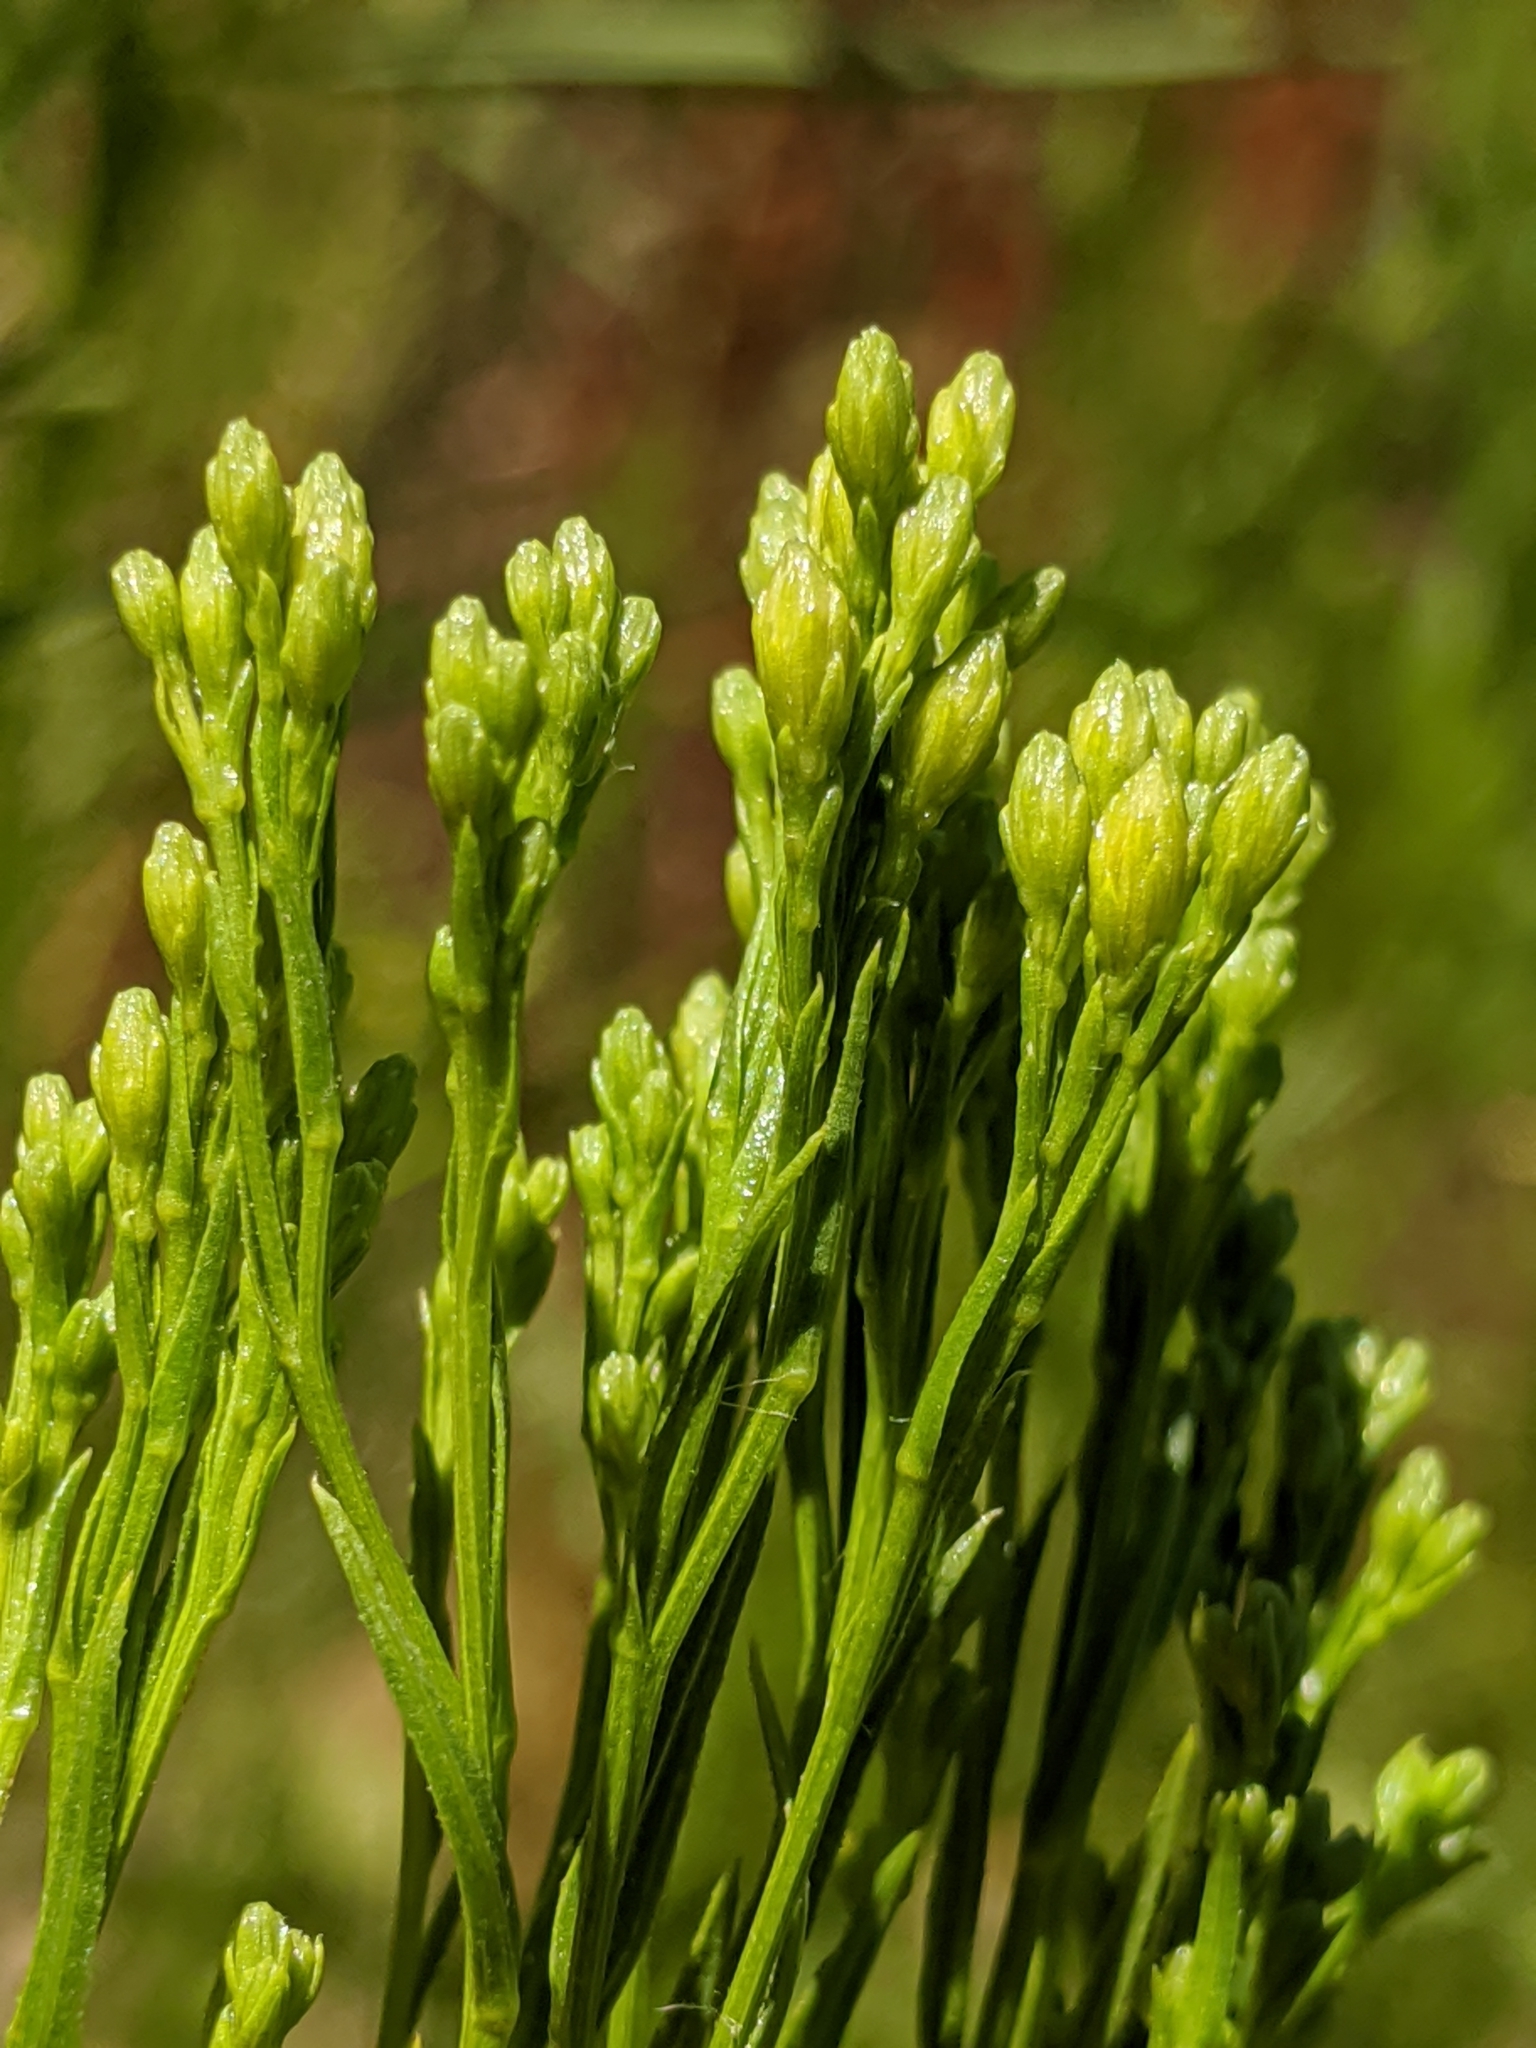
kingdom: Plantae
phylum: Tracheophyta
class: Magnoliopsida
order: Asterales
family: Asteraceae
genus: Euthamia
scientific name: Euthamia occidentalis
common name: Western goldentop
